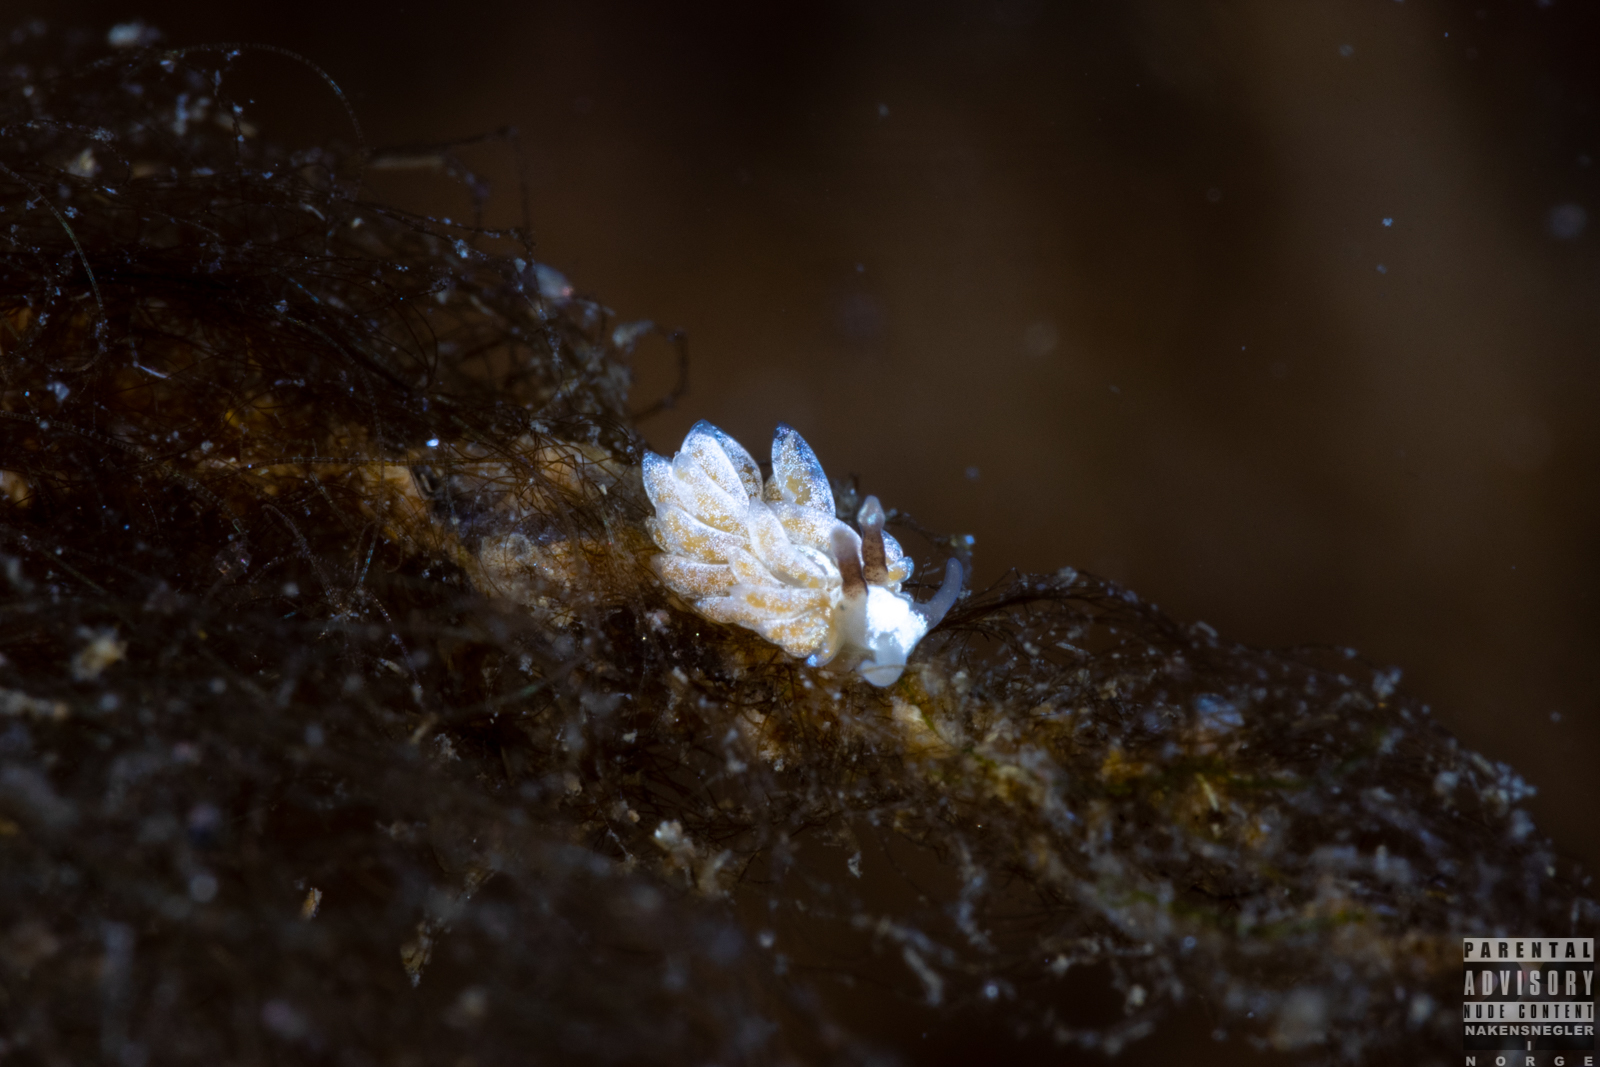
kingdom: Animalia
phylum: Mollusca
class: Gastropoda
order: Nudibranchia
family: Facelinidae
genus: Favorinus
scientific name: Favorinus branchialis
